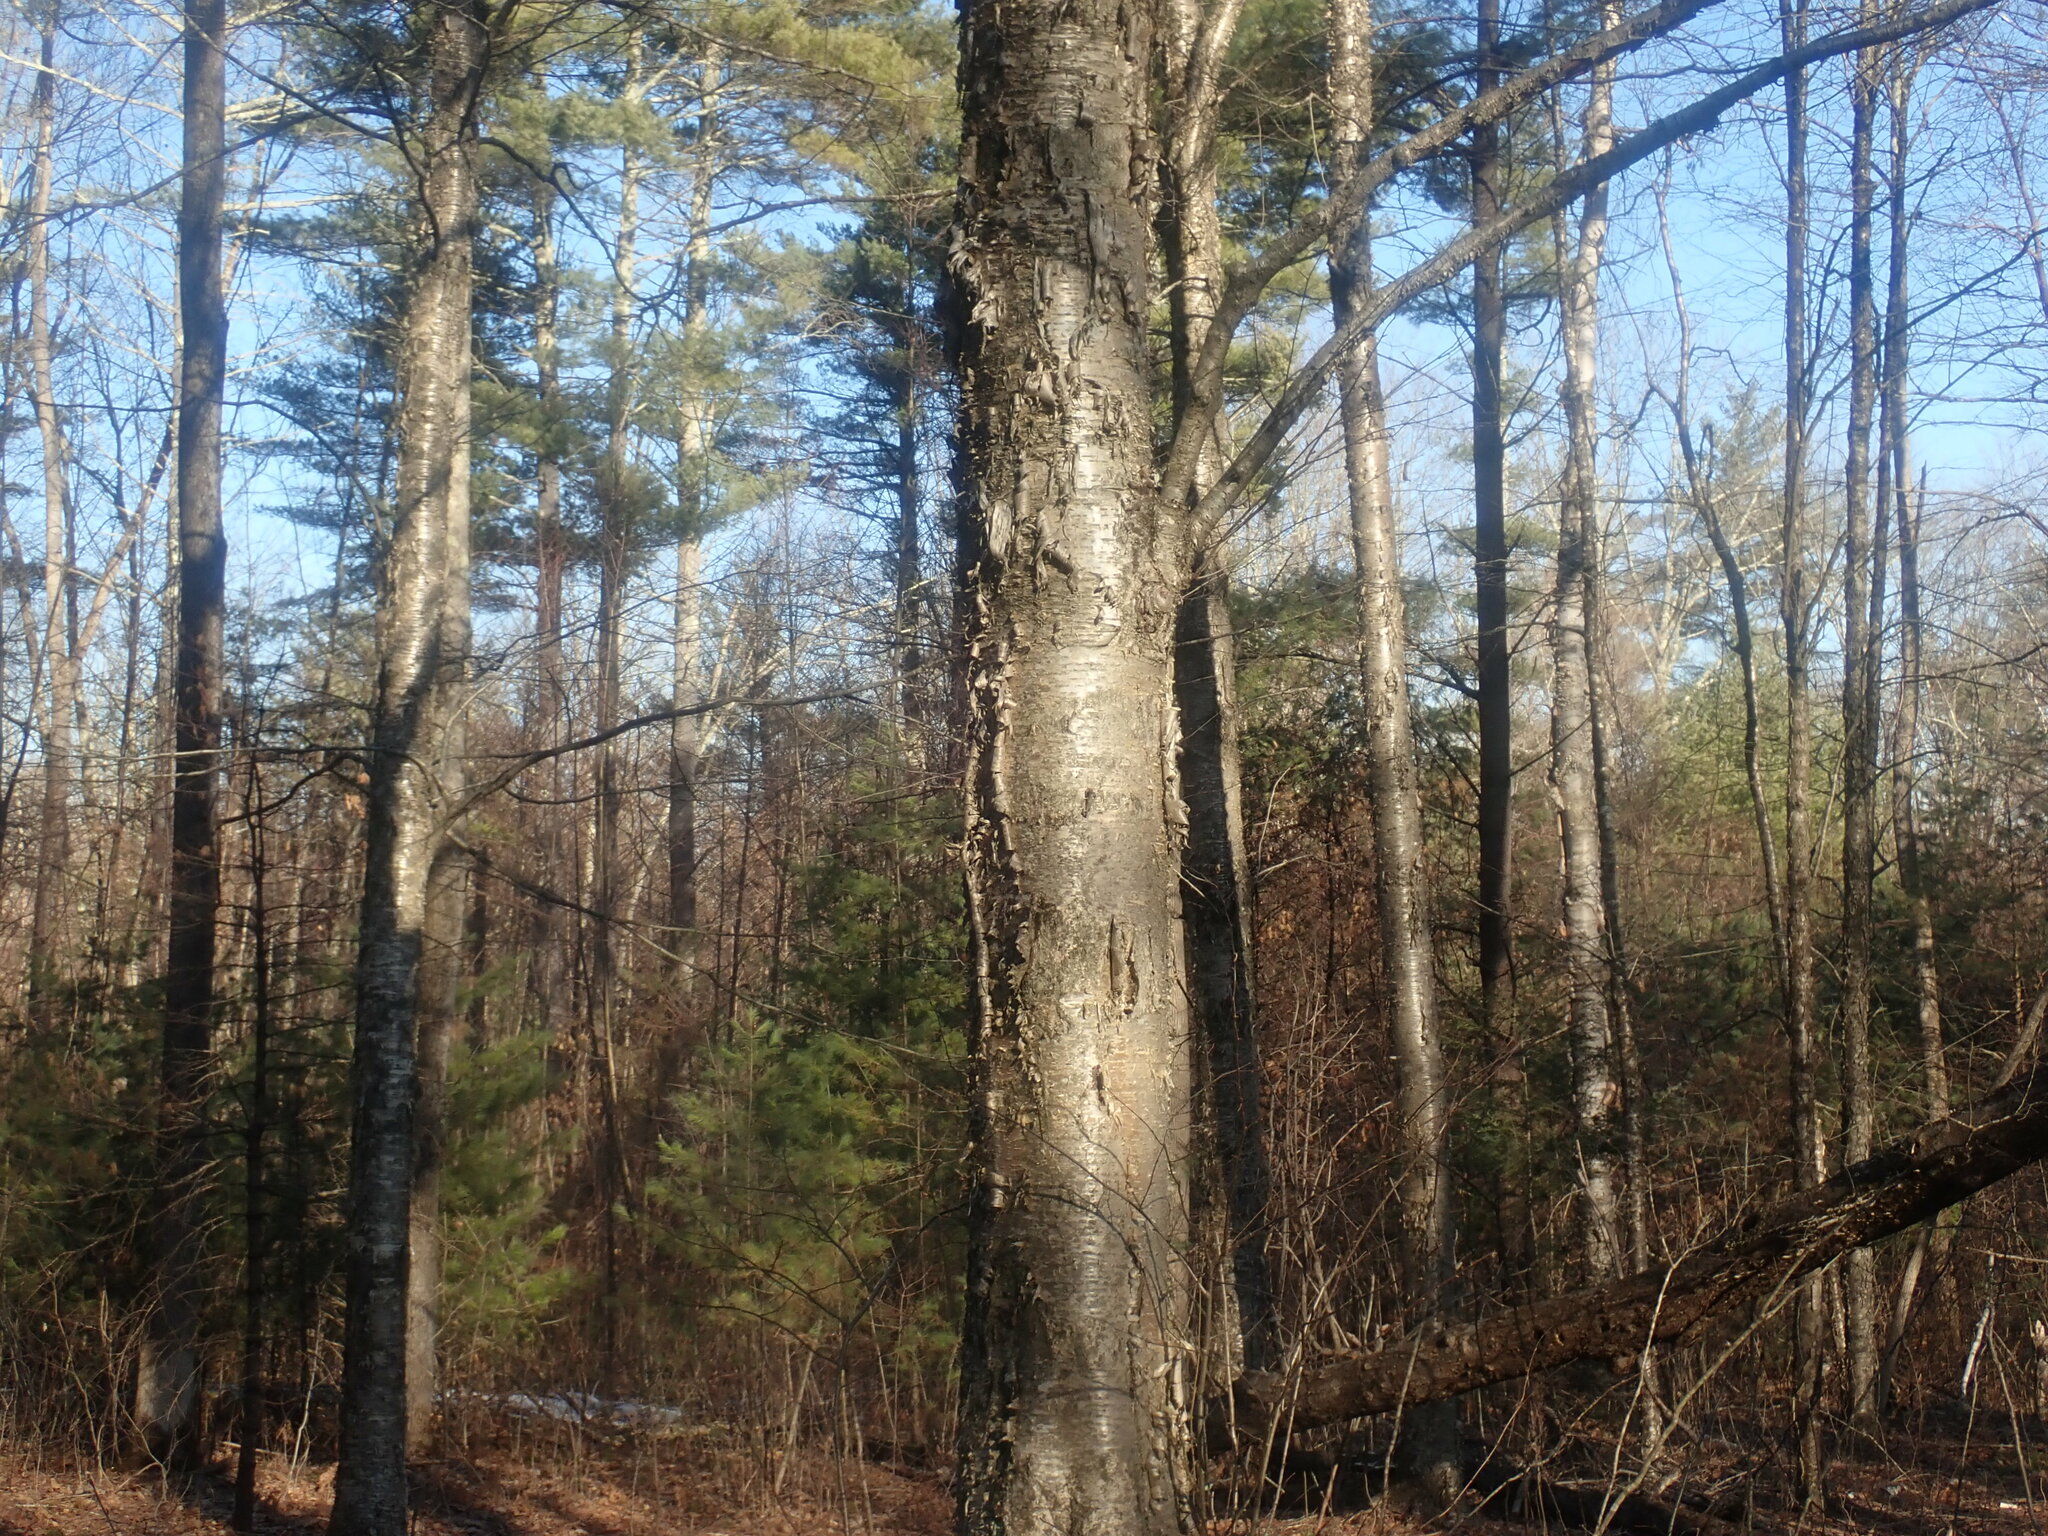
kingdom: Plantae
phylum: Tracheophyta
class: Magnoliopsida
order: Fagales
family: Betulaceae
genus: Betula
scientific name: Betula alleghaniensis
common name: Yellow birch
